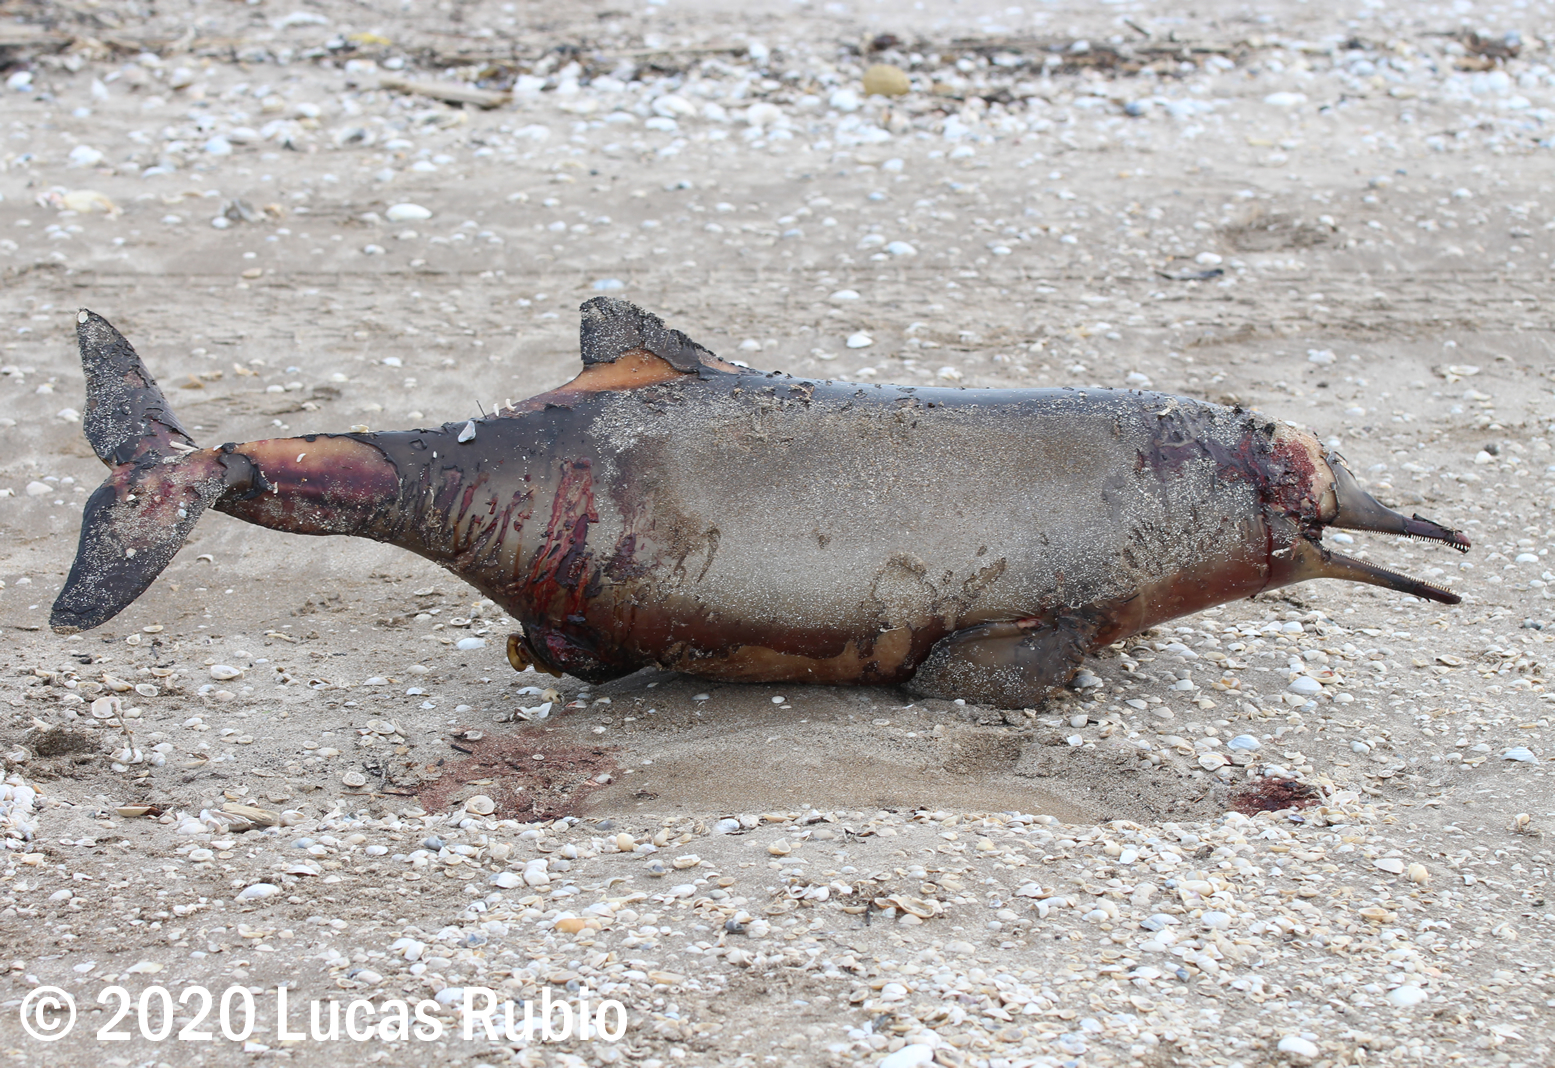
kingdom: Animalia
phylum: Chordata
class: Mammalia
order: Cetacea
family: Pontoporiidae
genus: Pontoporia
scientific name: Pontoporia blainvillei
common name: Franciscana
